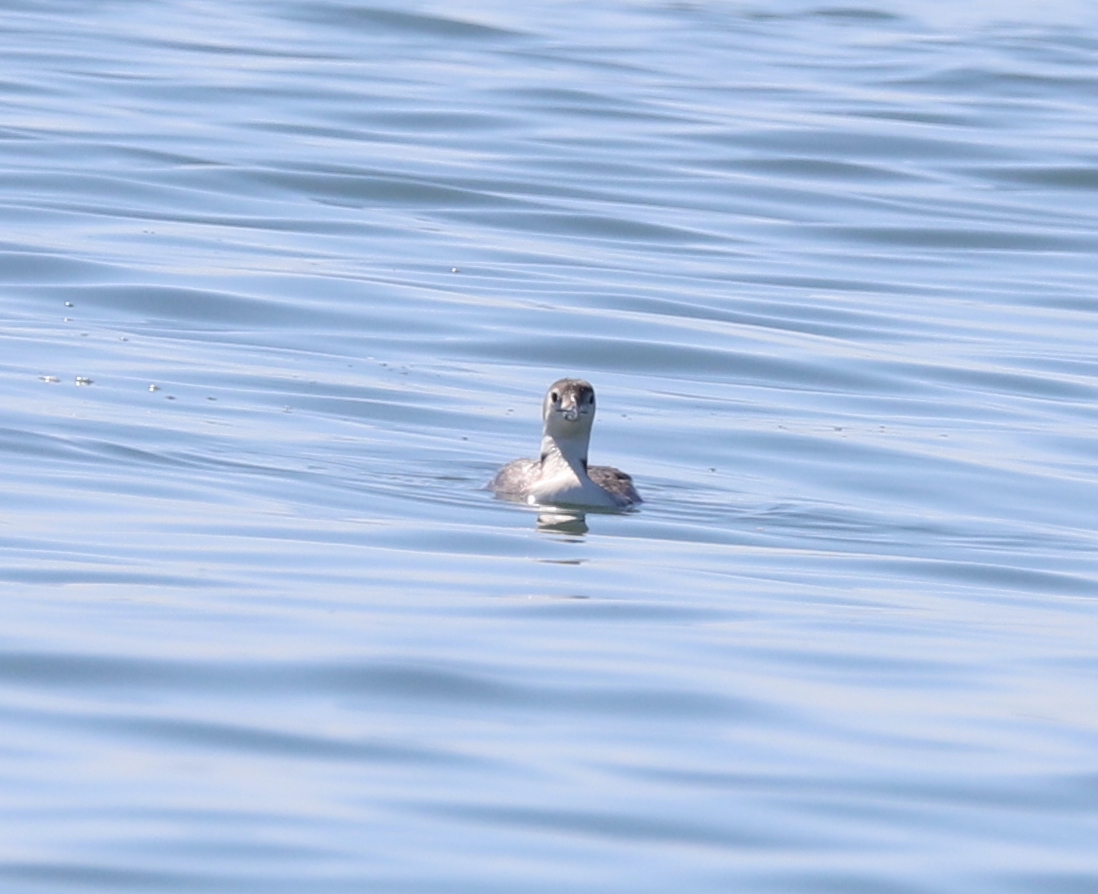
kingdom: Animalia
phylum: Chordata
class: Aves
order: Gaviiformes
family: Gaviidae
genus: Gavia
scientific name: Gavia immer
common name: Common loon
